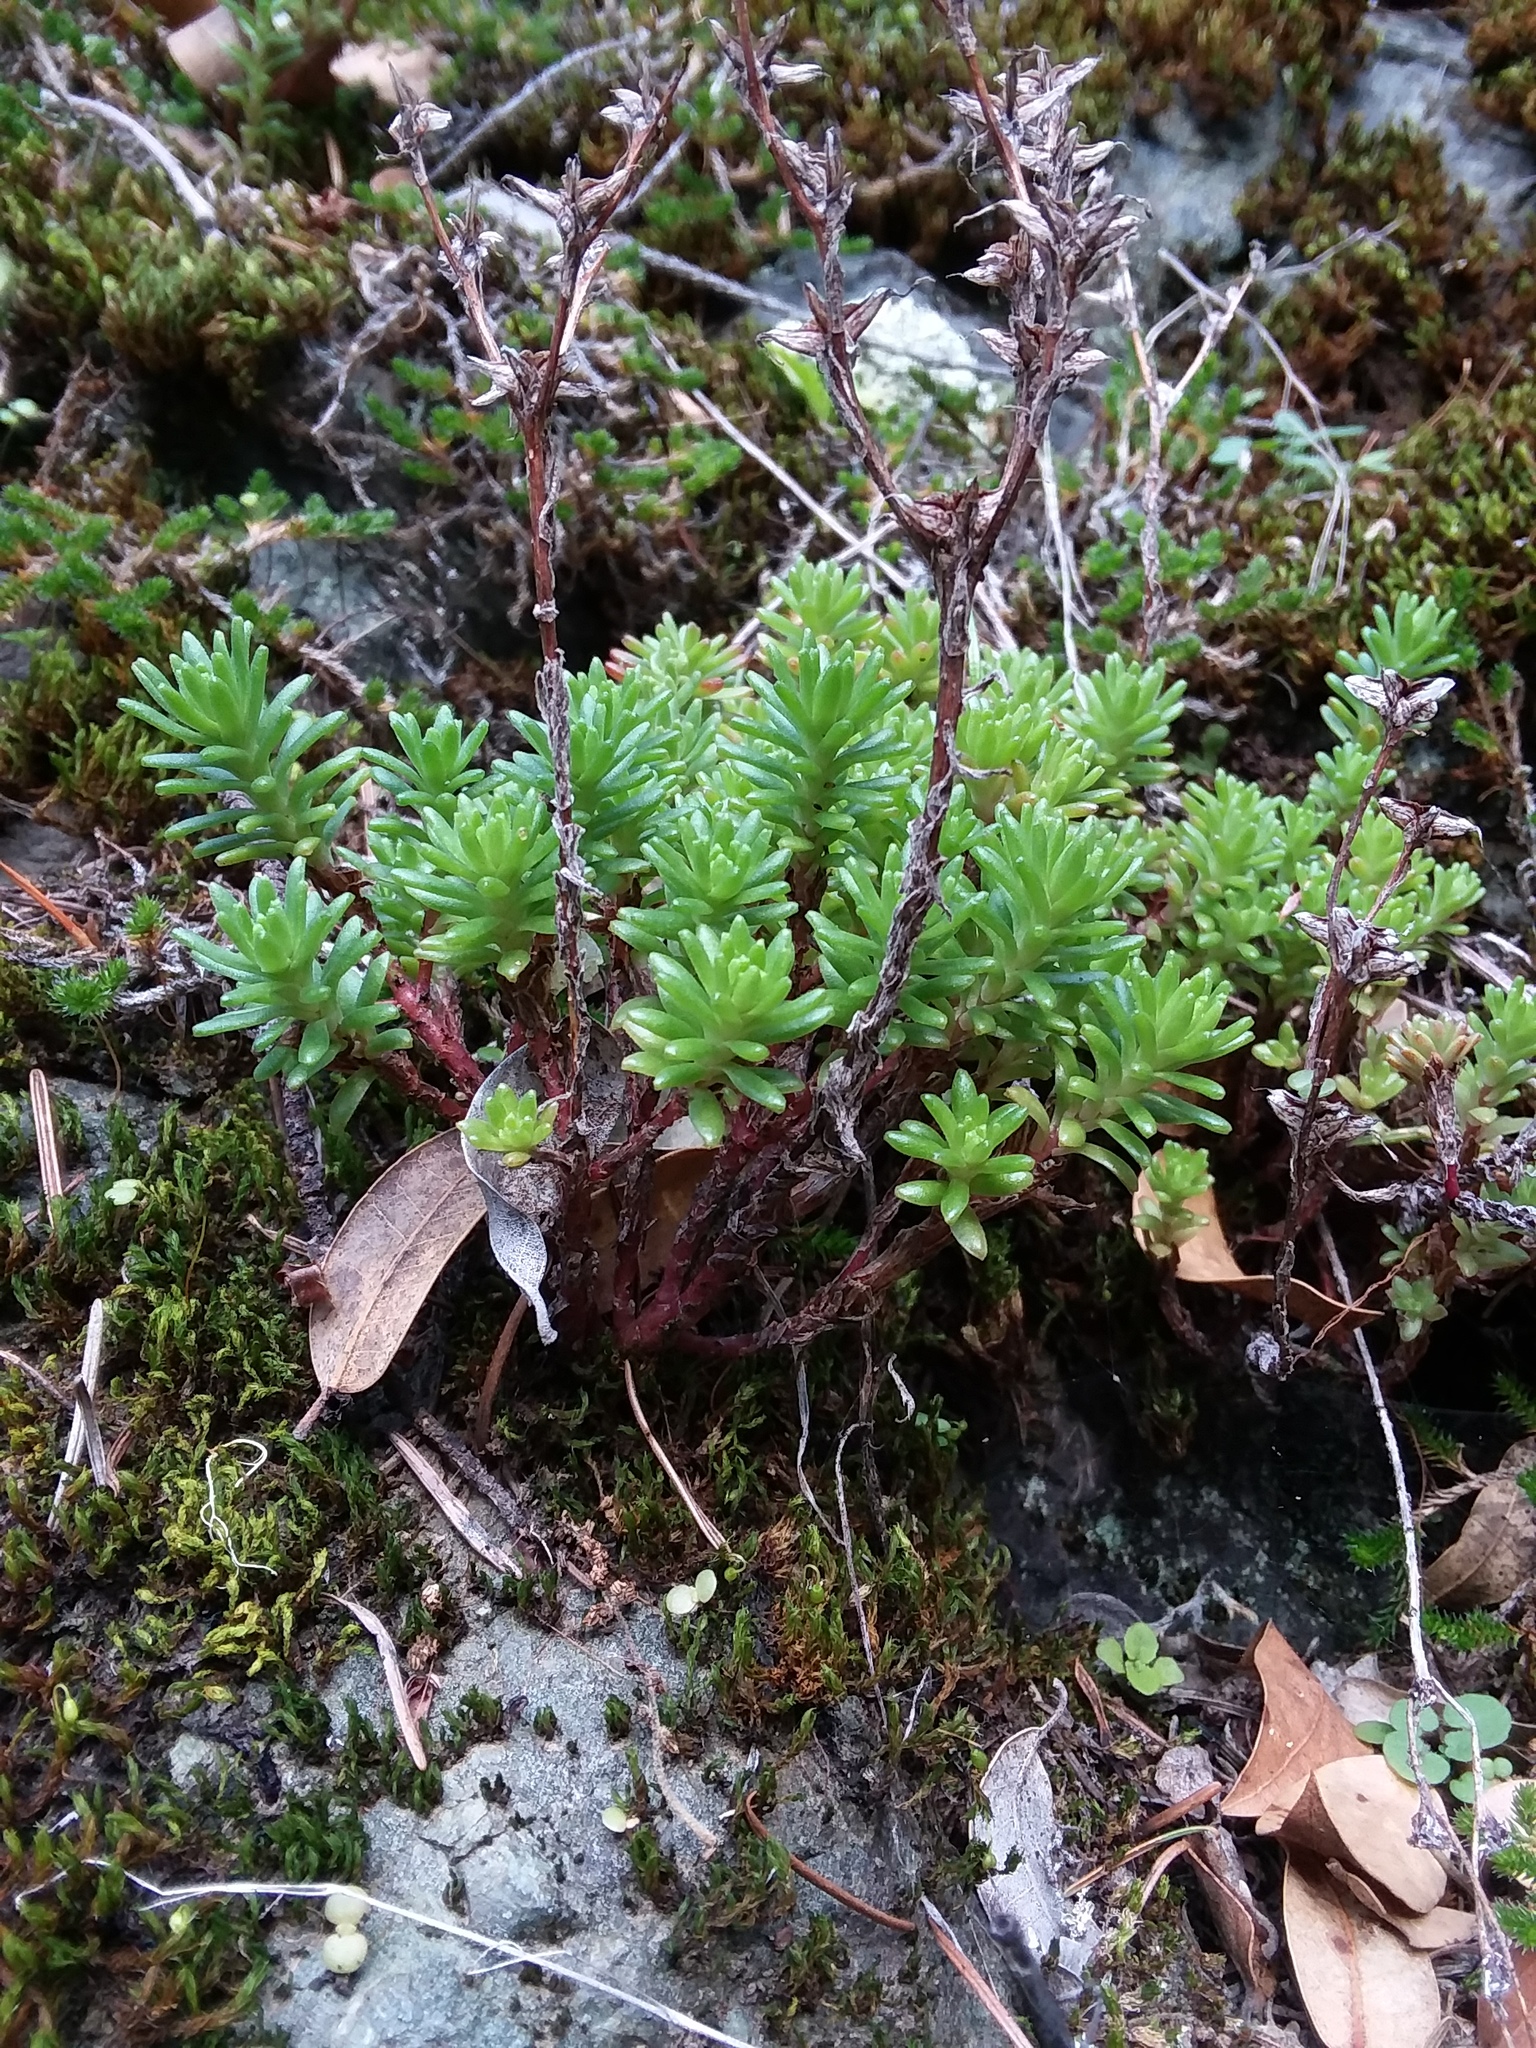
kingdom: Plantae
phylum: Tracheophyta
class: Magnoliopsida
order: Saxifragales
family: Crassulaceae
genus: Sedum
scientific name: Sedum radiatum
